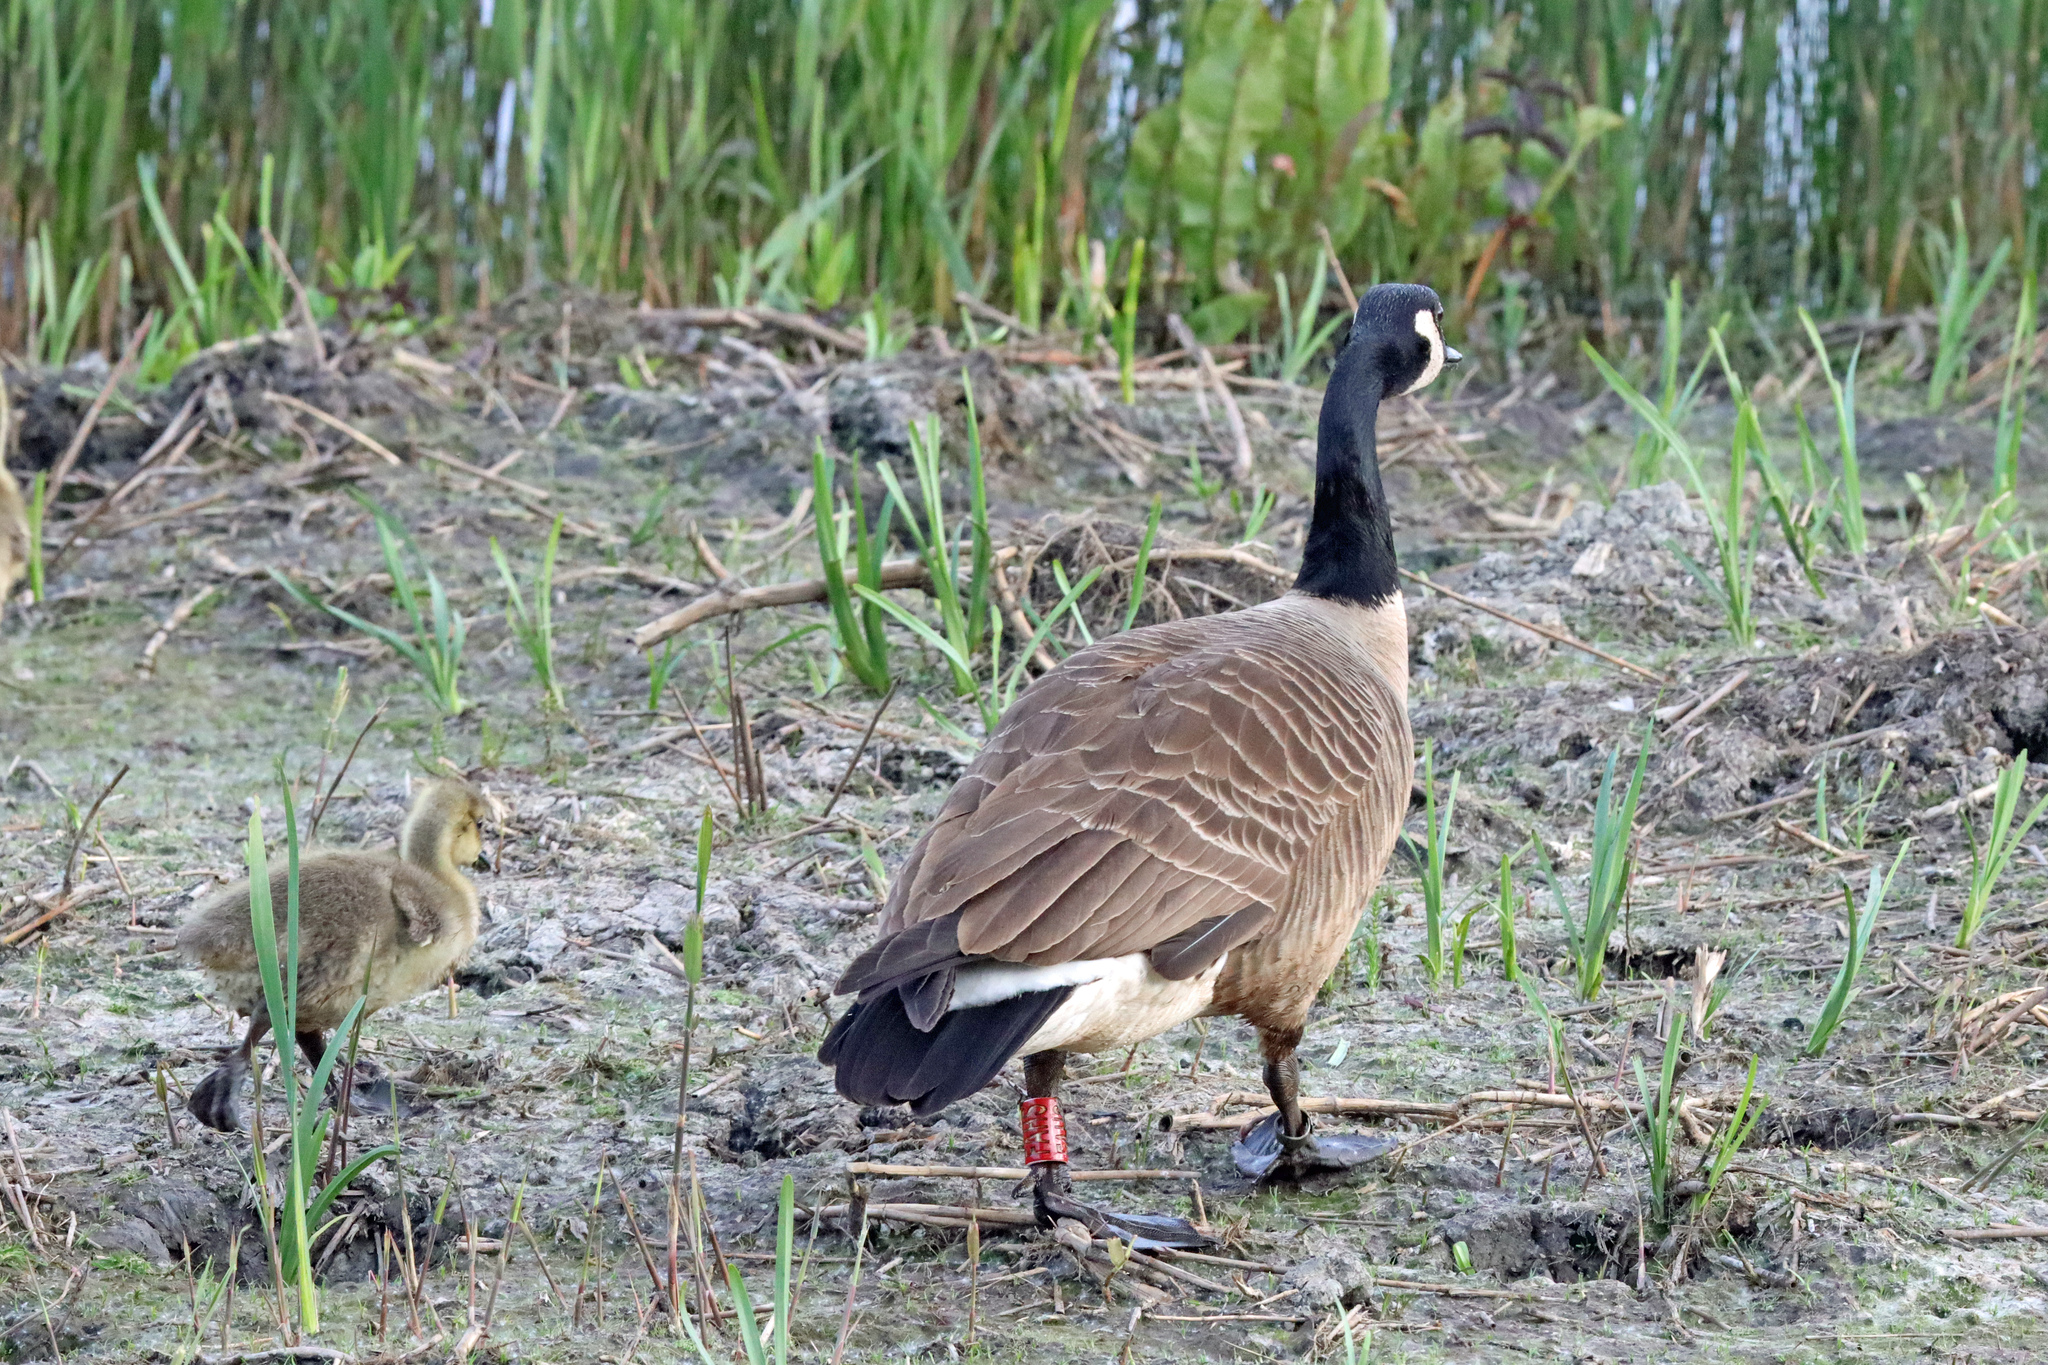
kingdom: Animalia
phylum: Chordata
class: Aves
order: Anseriformes
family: Anatidae
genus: Branta
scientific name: Branta canadensis
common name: Canada goose
